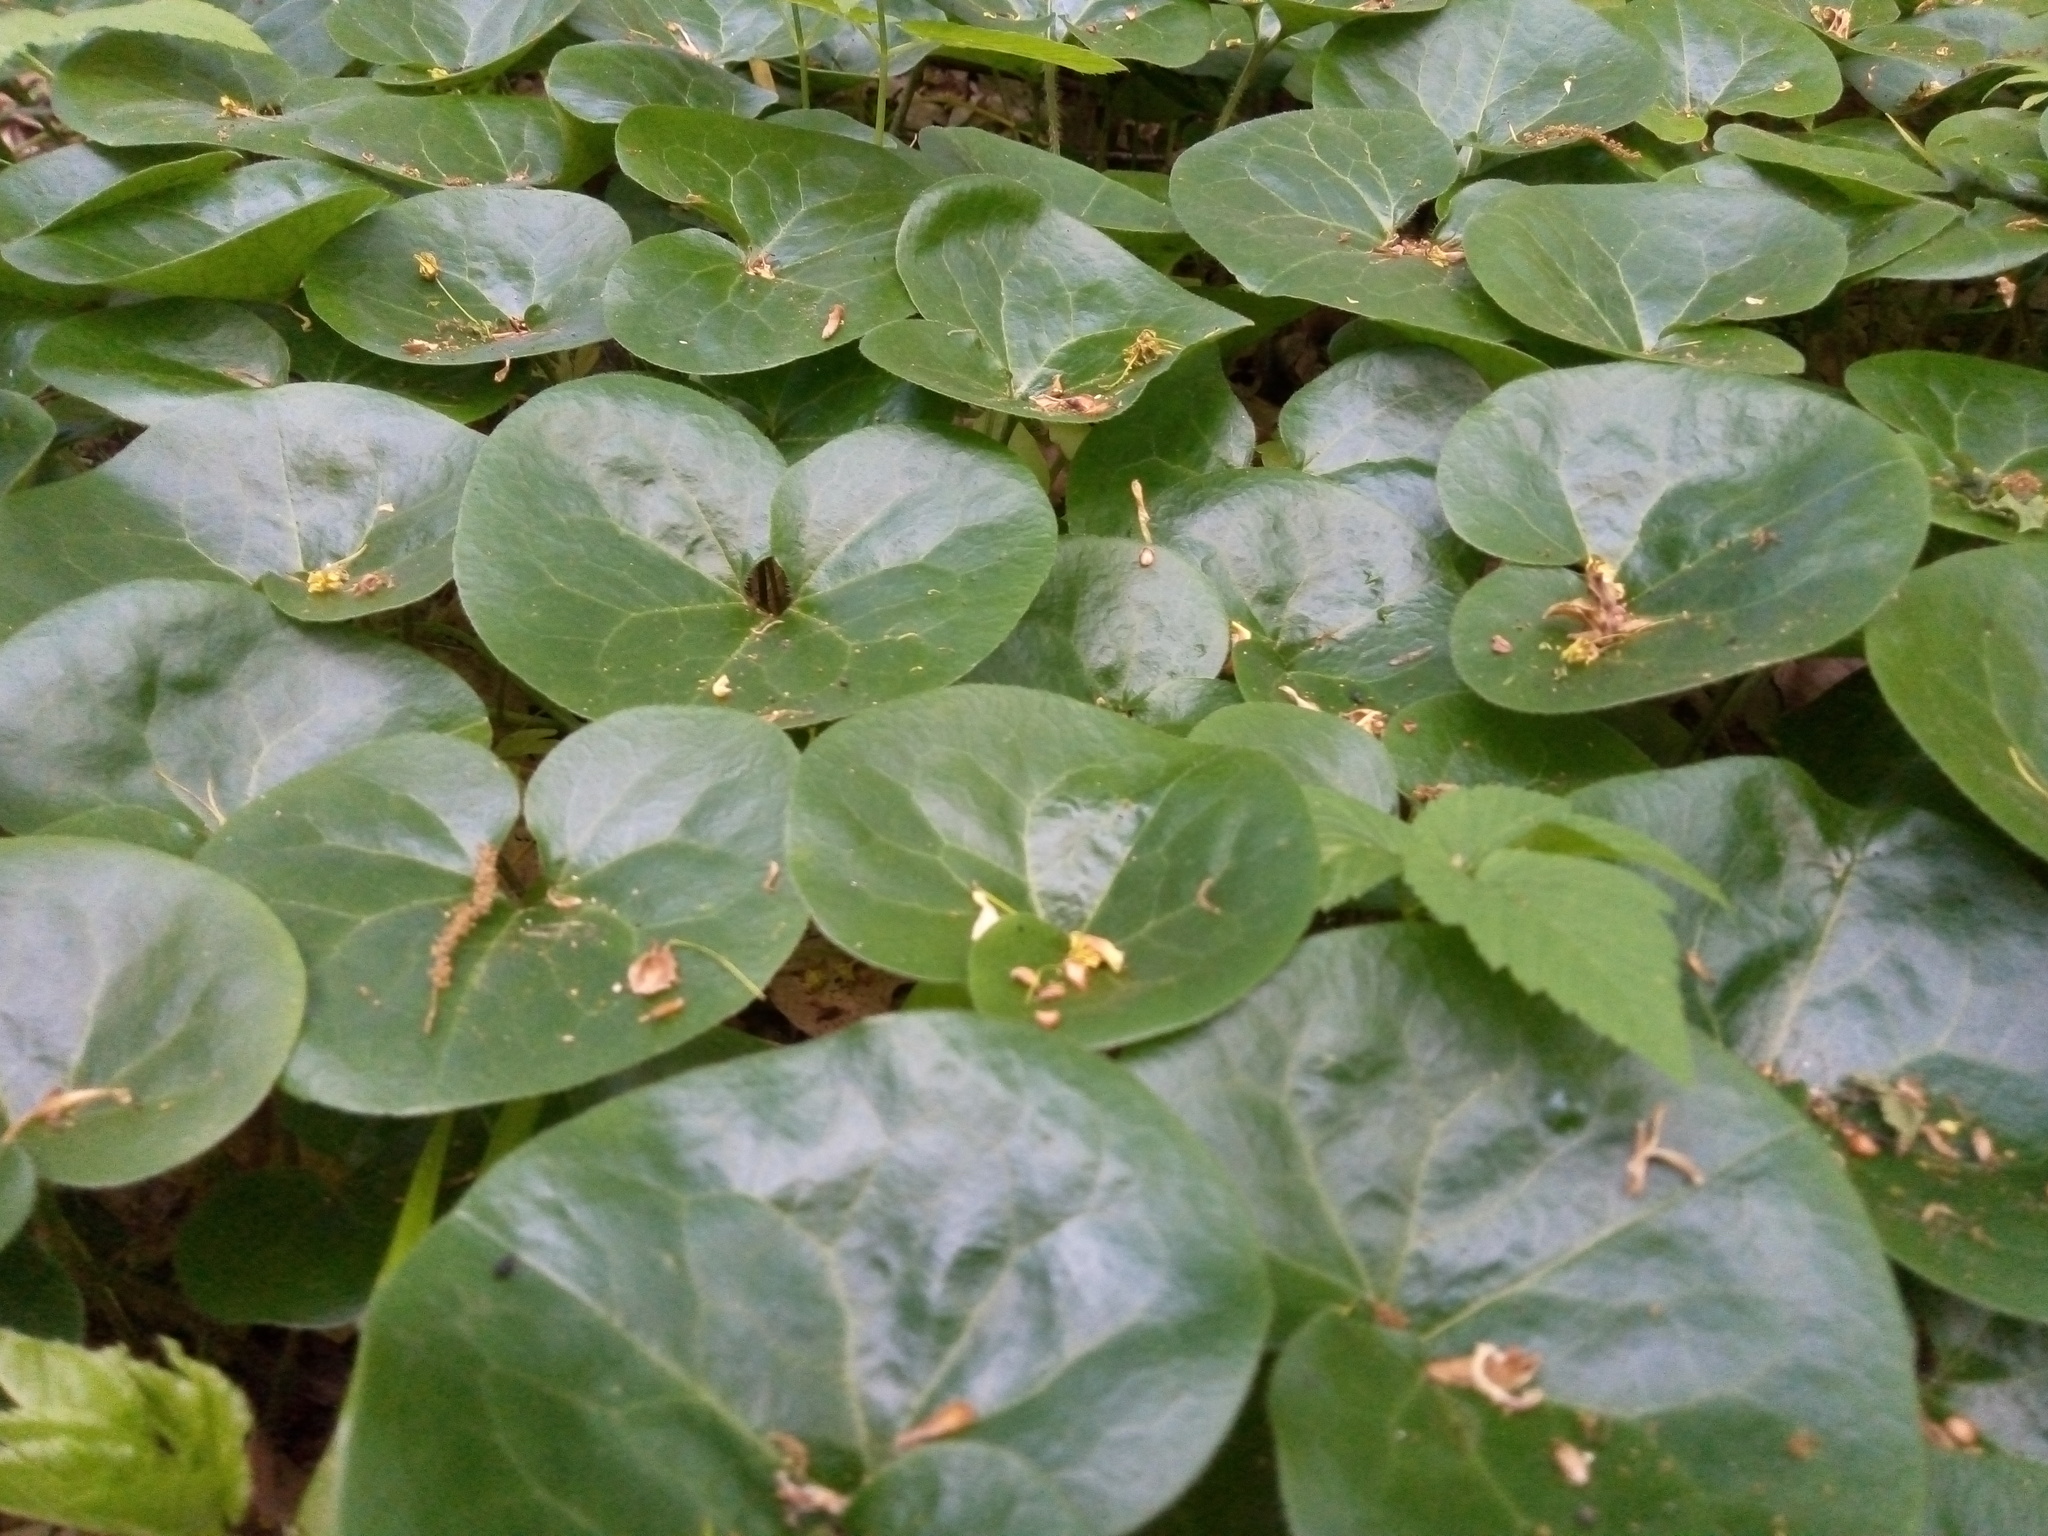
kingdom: Plantae
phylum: Tracheophyta
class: Magnoliopsida
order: Piperales
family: Aristolochiaceae
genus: Asarum
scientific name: Asarum europaeum
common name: Asarabacca
